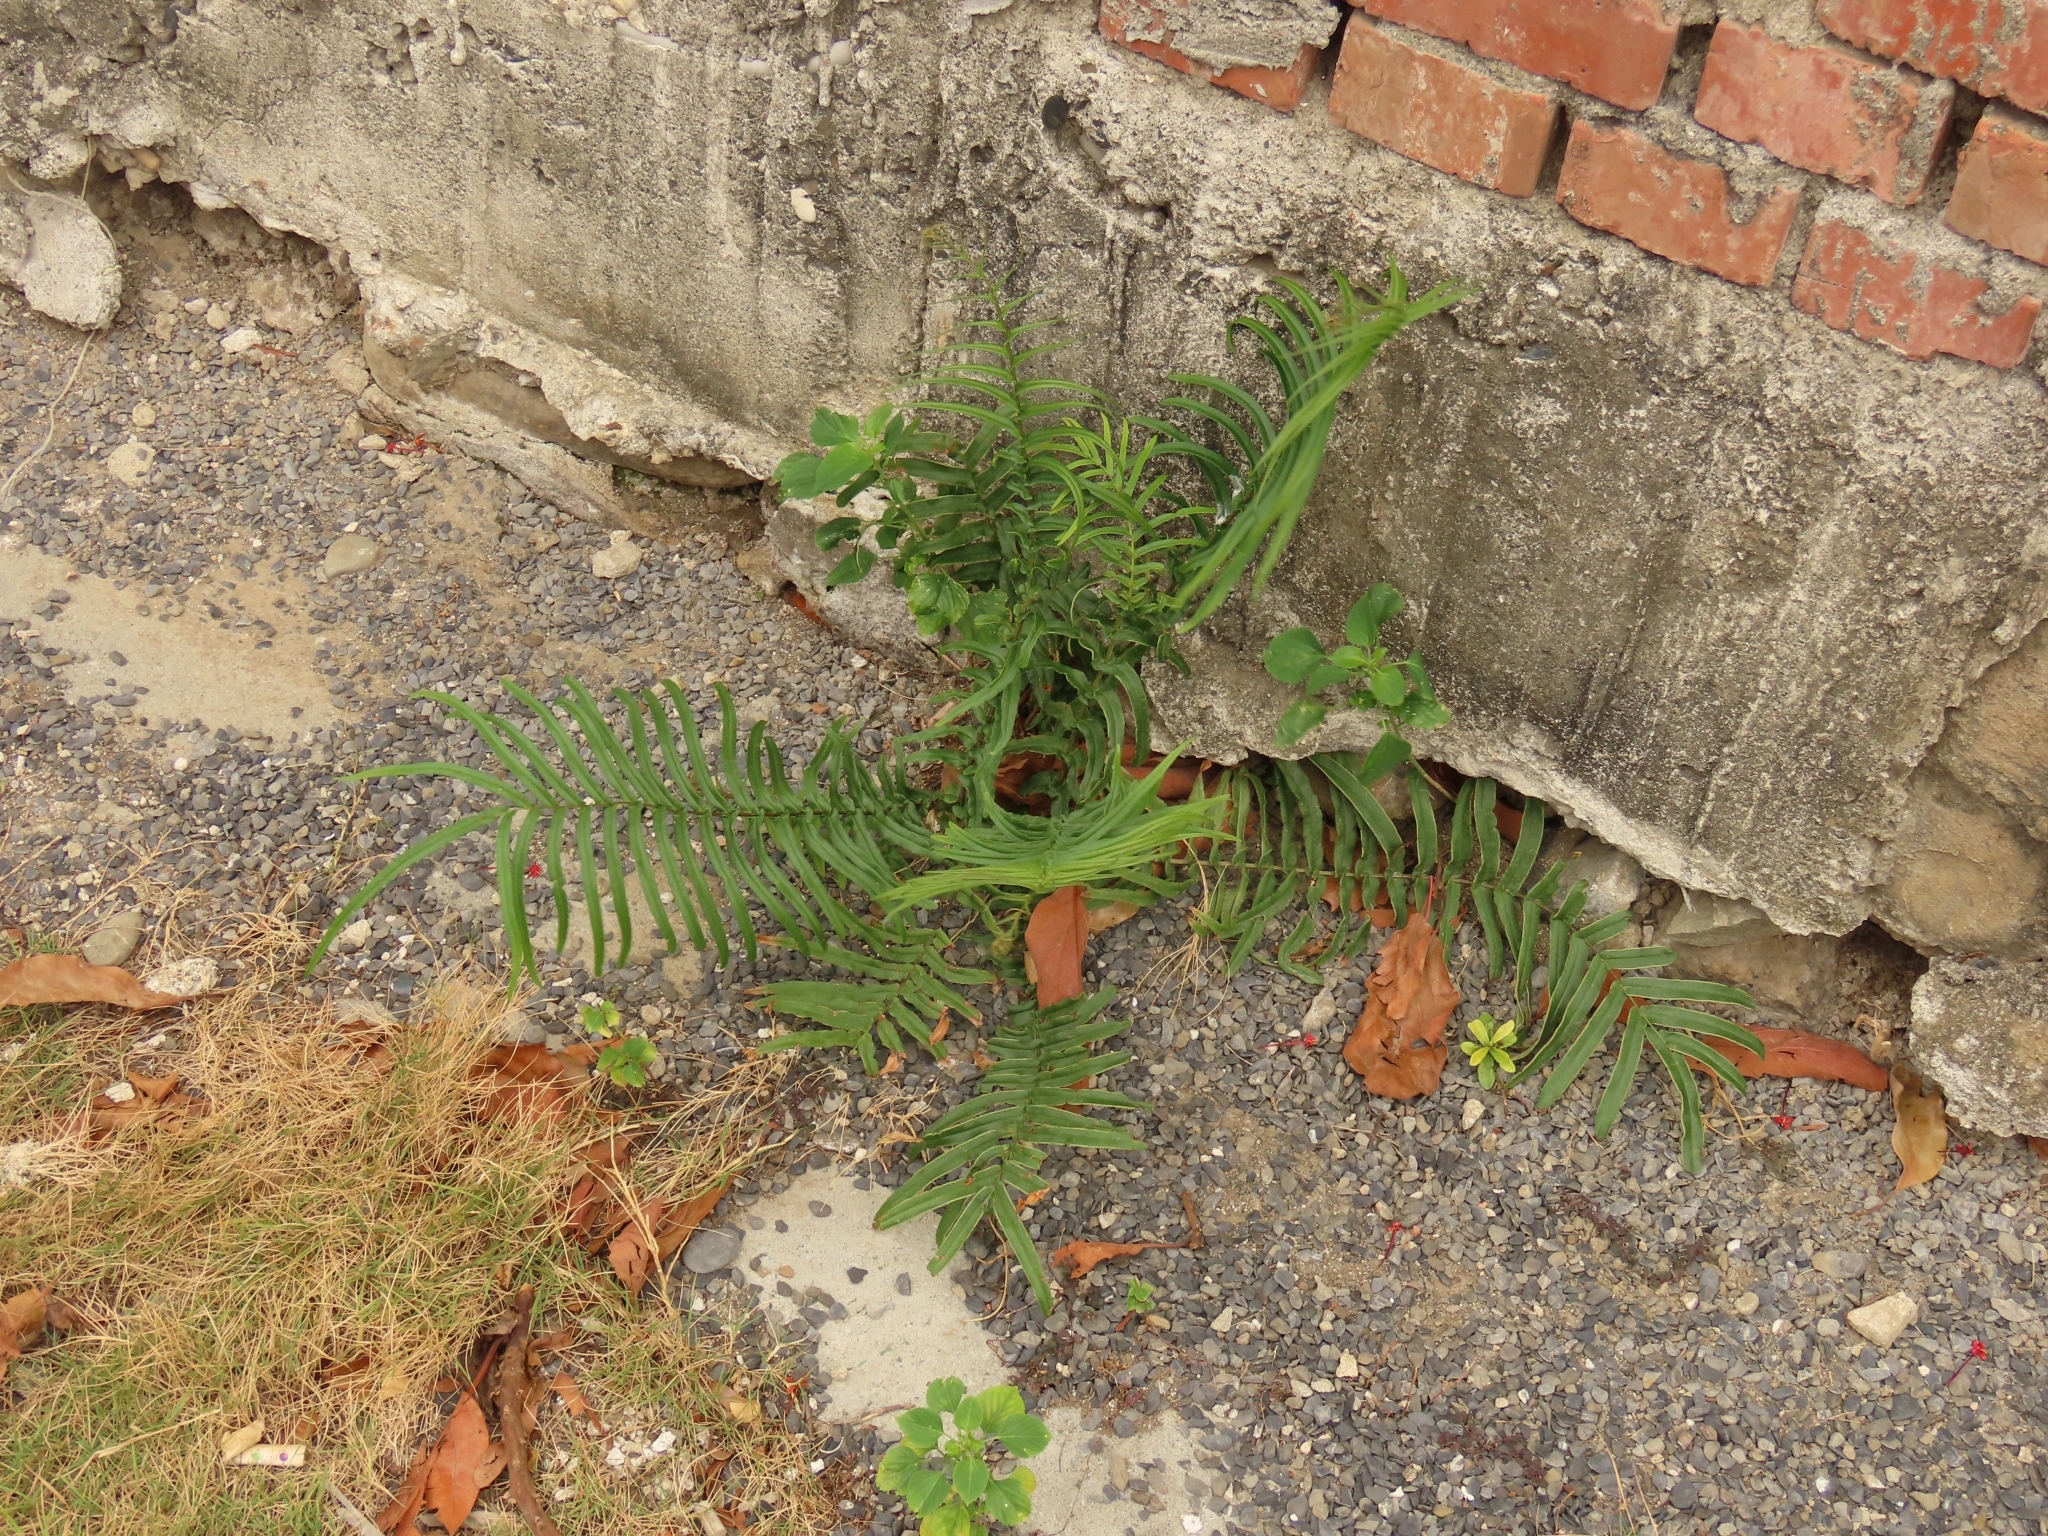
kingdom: Plantae
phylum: Tracheophyta
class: Polypodiopsida
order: Polypodiales
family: Pteridaceae
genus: Pteris
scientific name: Pteris vittata
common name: Ladder brake
